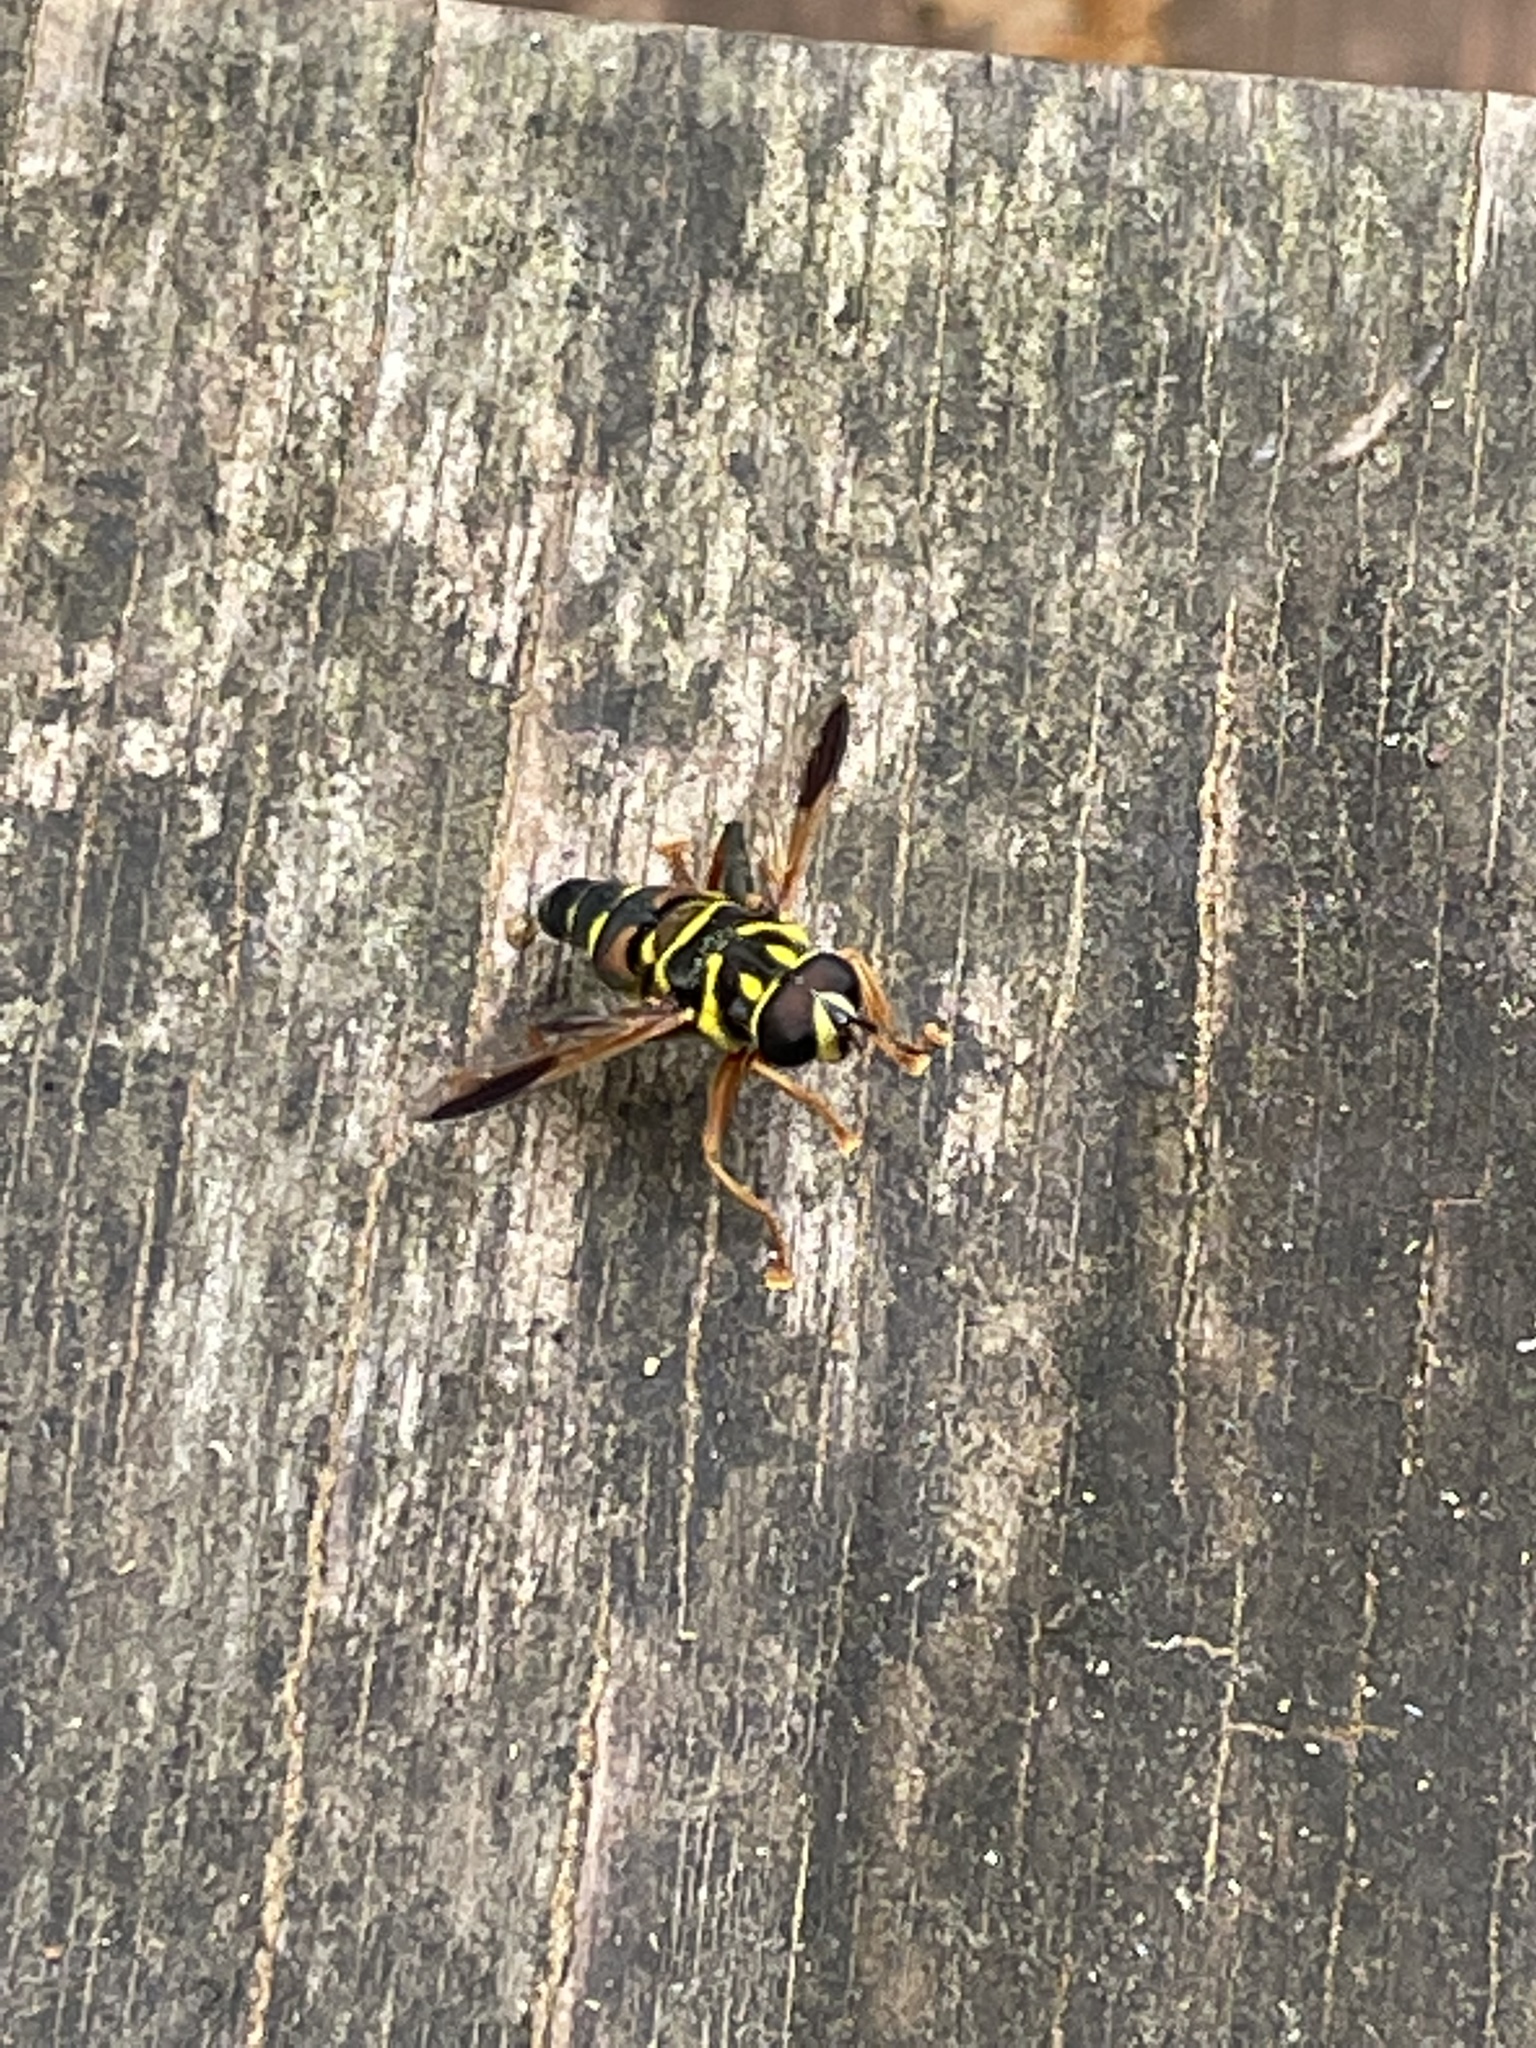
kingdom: Animalia
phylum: Arthropoda
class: Insecta
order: Diptera
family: Syrphidae
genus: Meromacrus
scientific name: Meromacrus acutus
